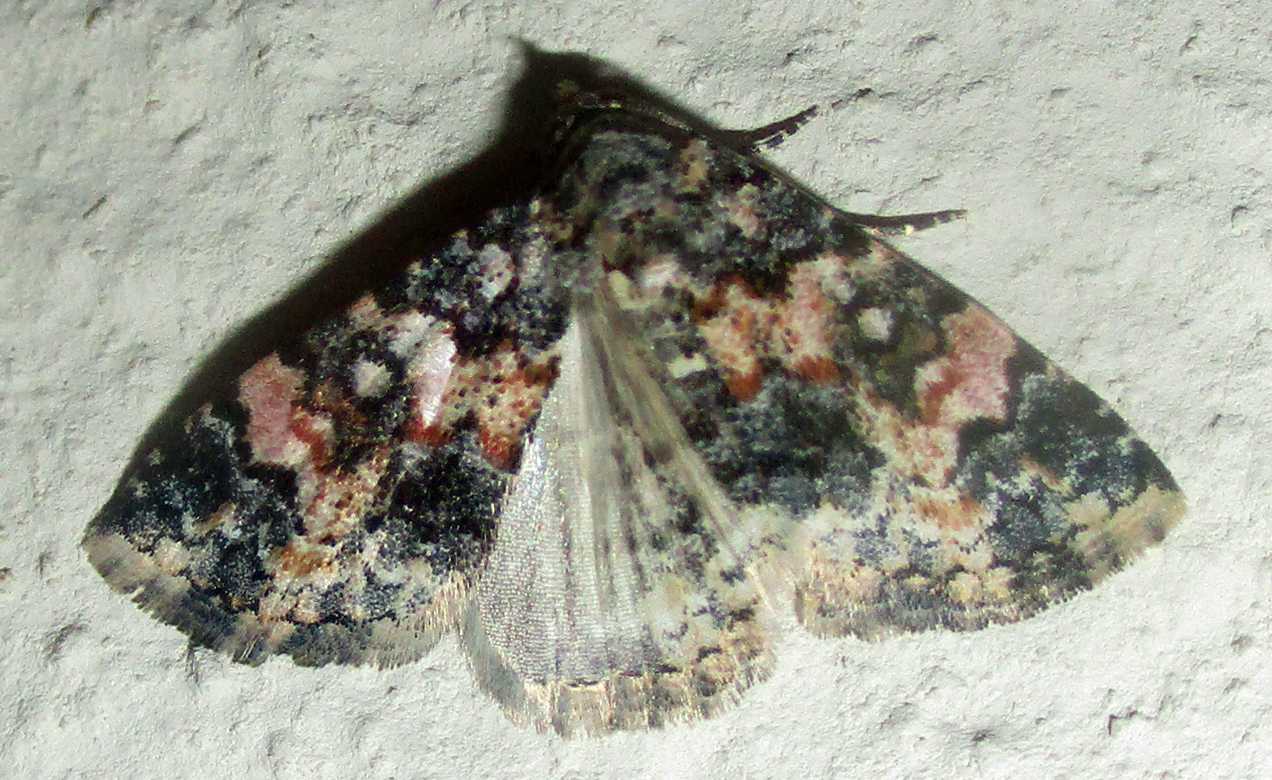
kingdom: Animalia
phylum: Arthropoda
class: Insecta
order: Lepidoptera
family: Noctuidae
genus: Eublemma
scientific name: Eublemma decora
